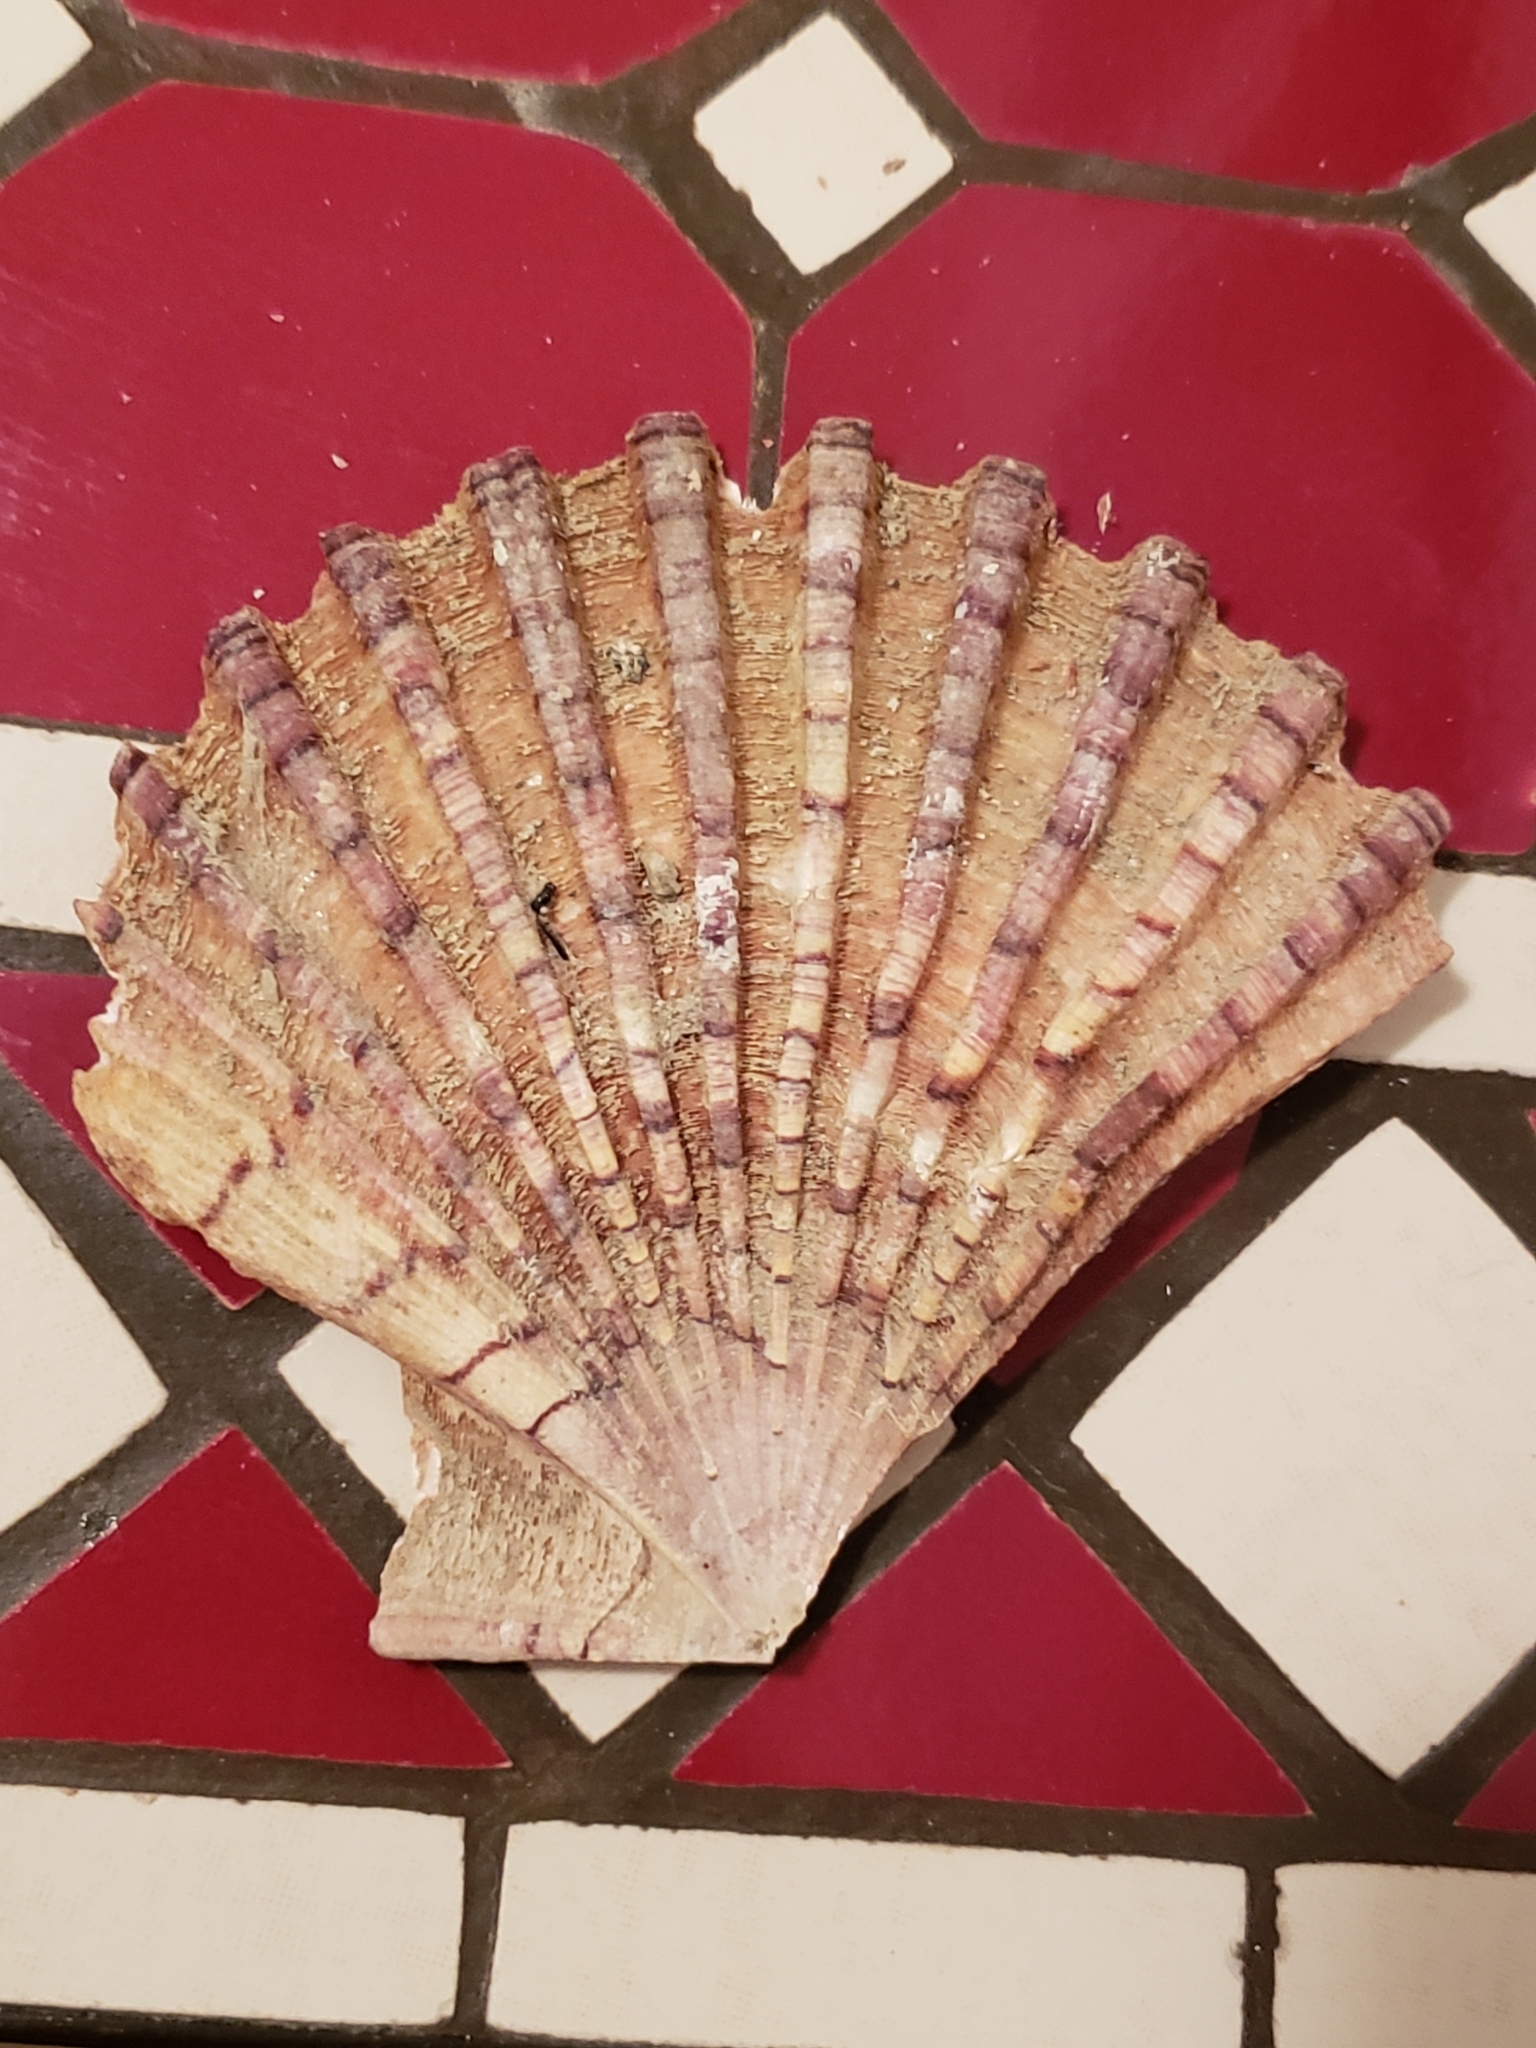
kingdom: Animalia
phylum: Mollusca
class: Bivalvia
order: Pectinida
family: Pectinidae
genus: Pecten
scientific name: Pecten jacobaeus
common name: St.james's scallop
